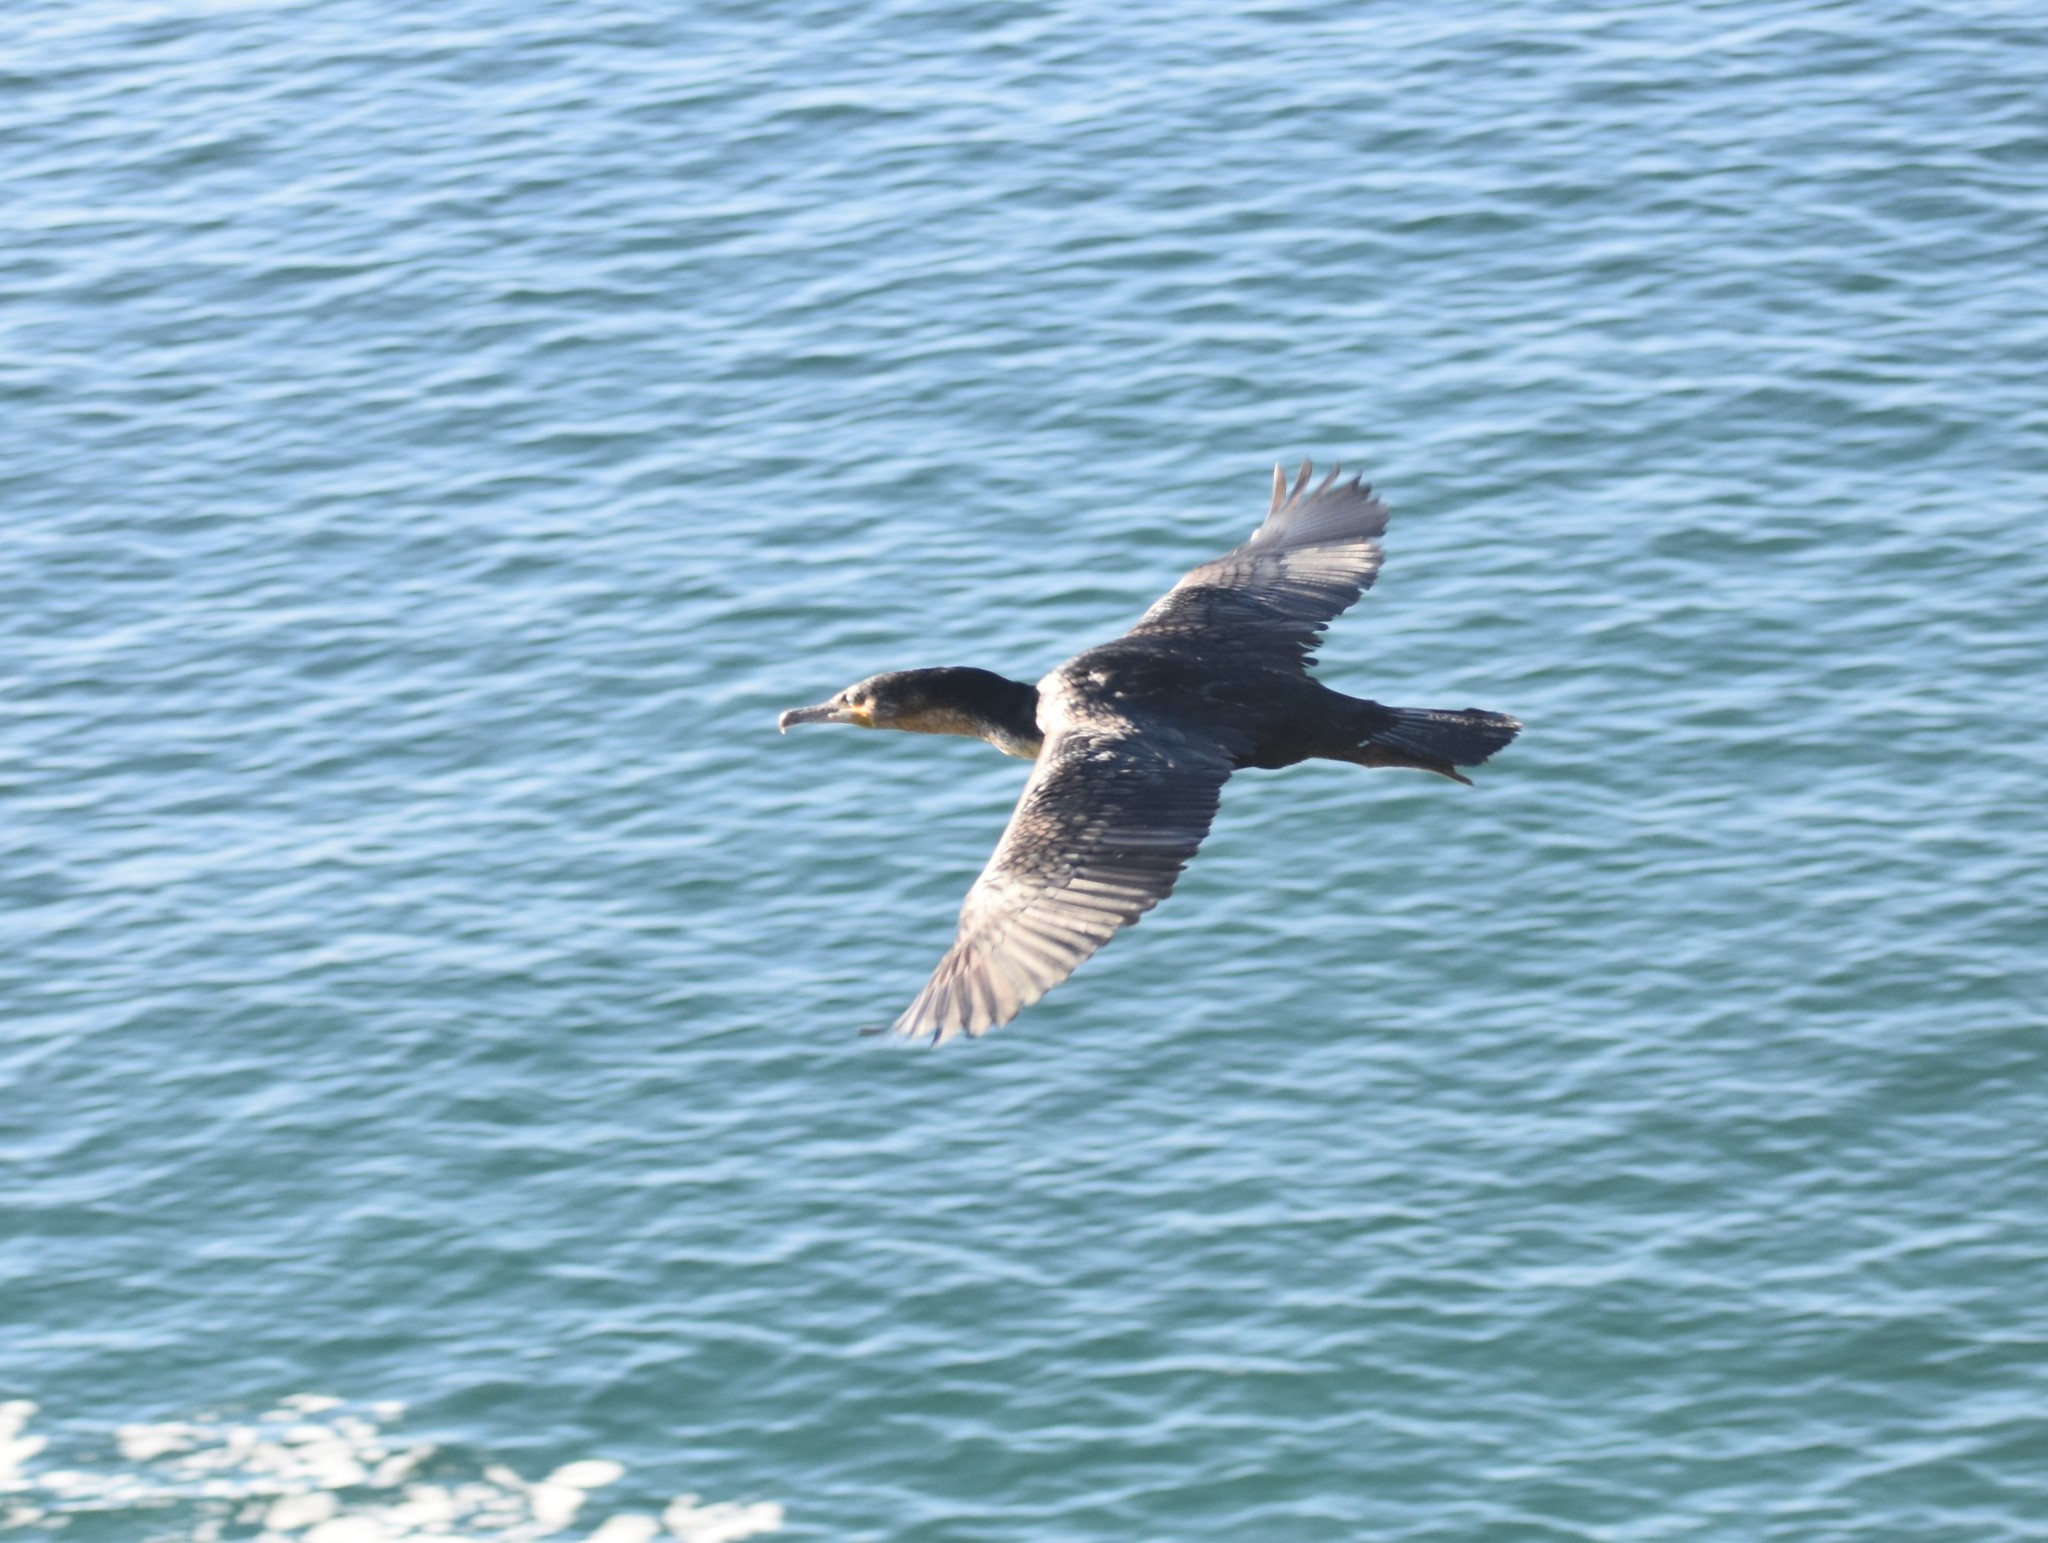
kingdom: Animalia
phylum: Chordata
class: Aves
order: Suliformes
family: Phalacrocoracidae
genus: Phalacrocorax
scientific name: Phalacrocorax carbo
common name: Great cormorant
